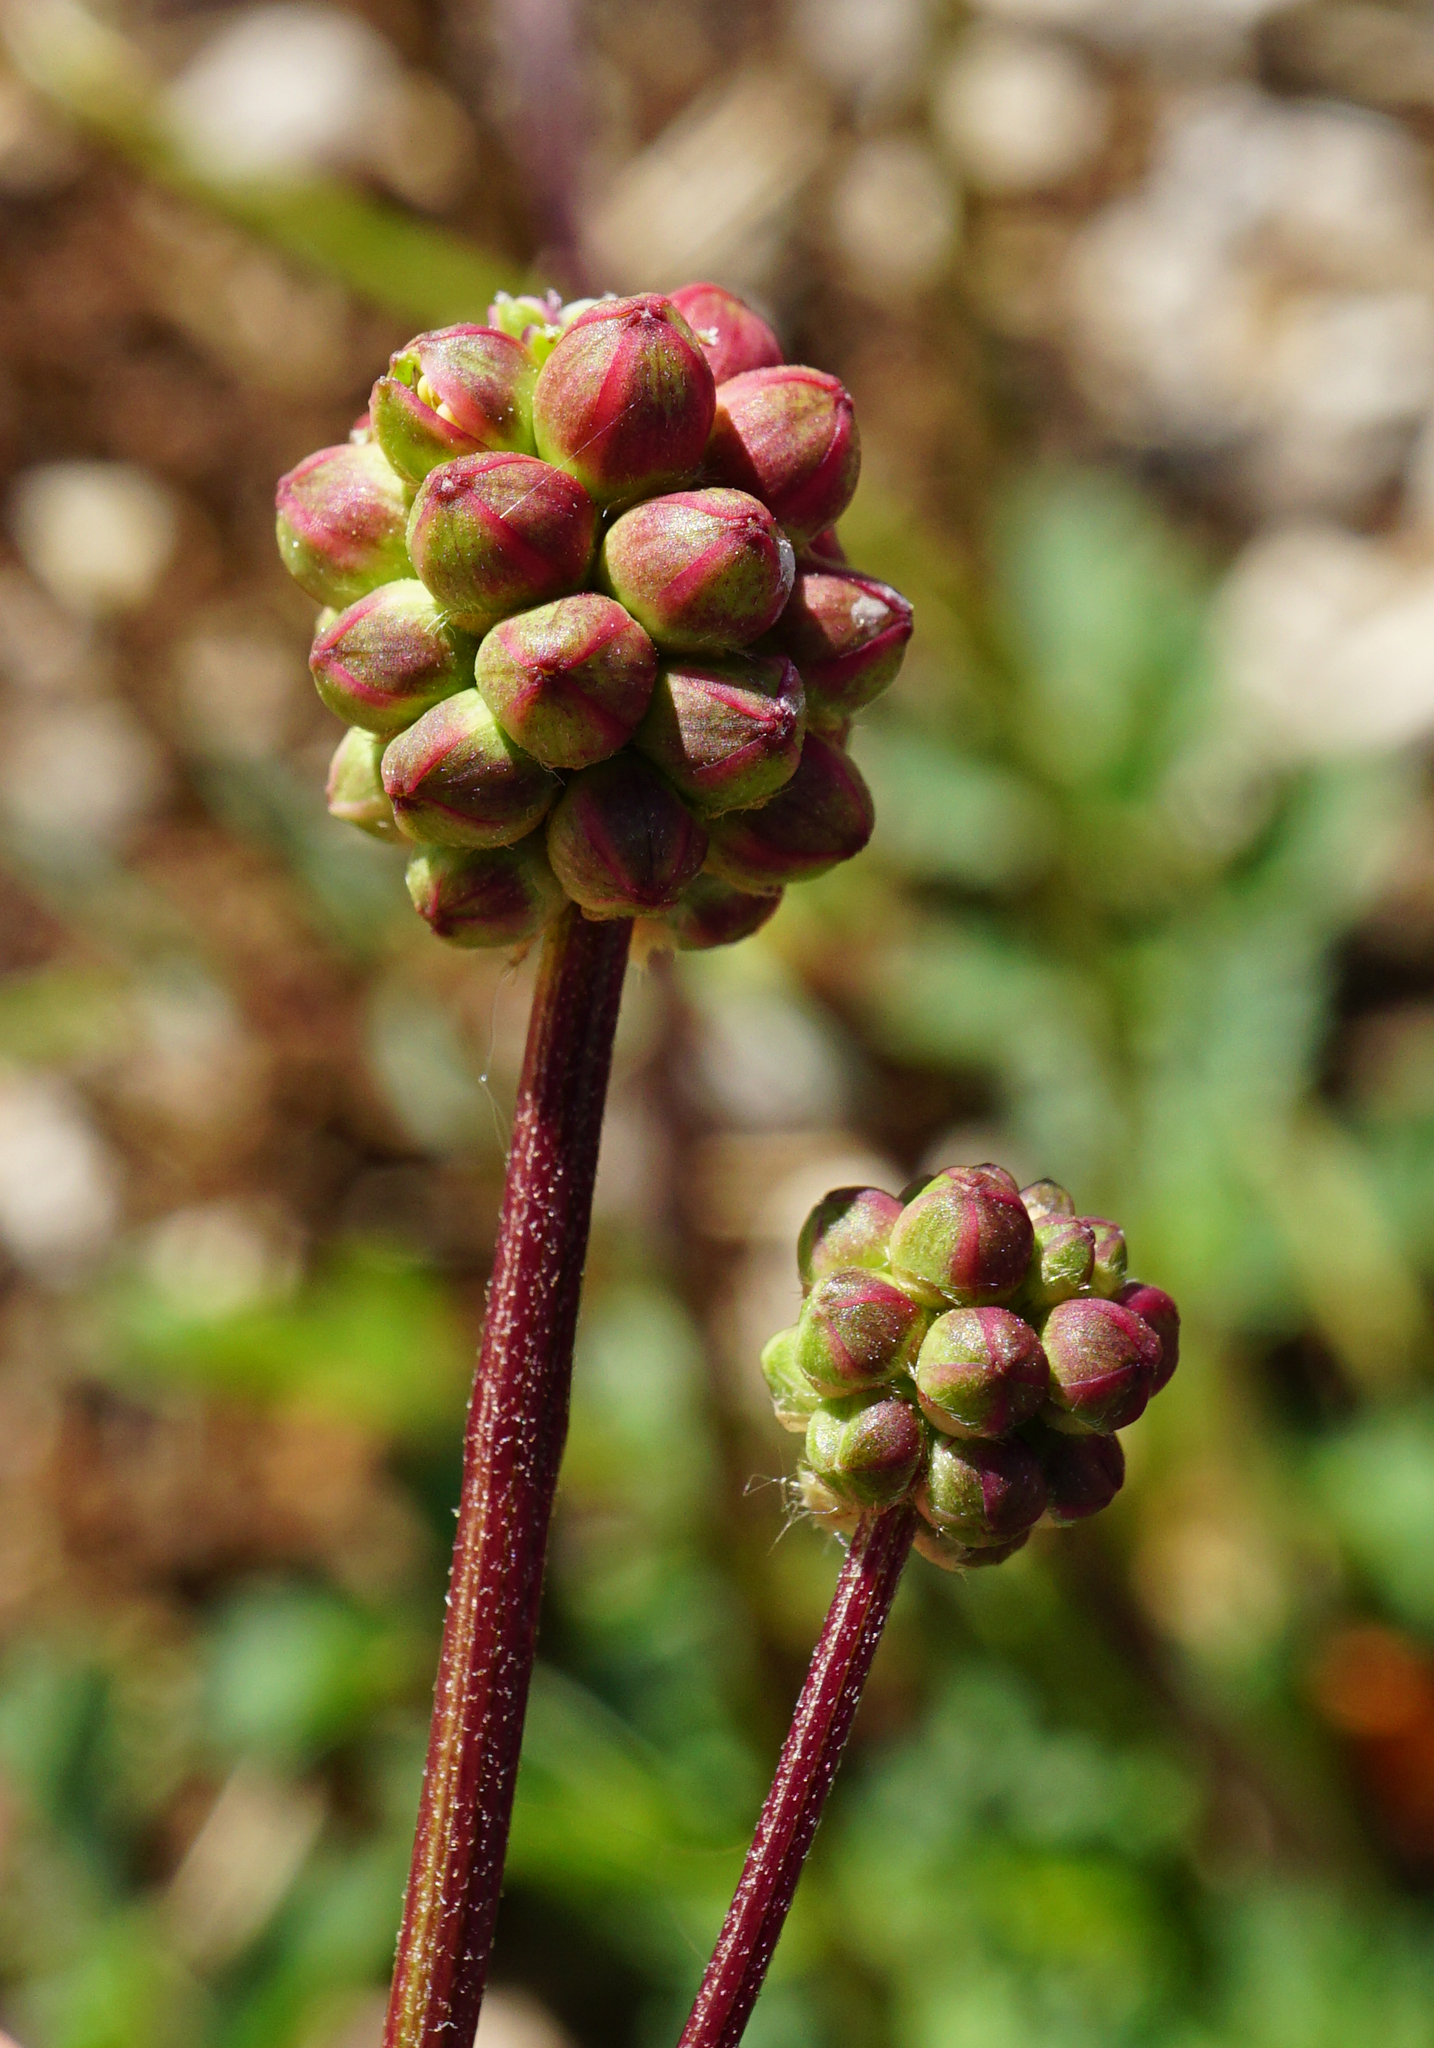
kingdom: Plantae
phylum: Tracheophyta
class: Magnoliopsida
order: Rosales
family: Rosaceae
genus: Poterium
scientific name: Poterium sanguisorba
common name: Salad burnet
